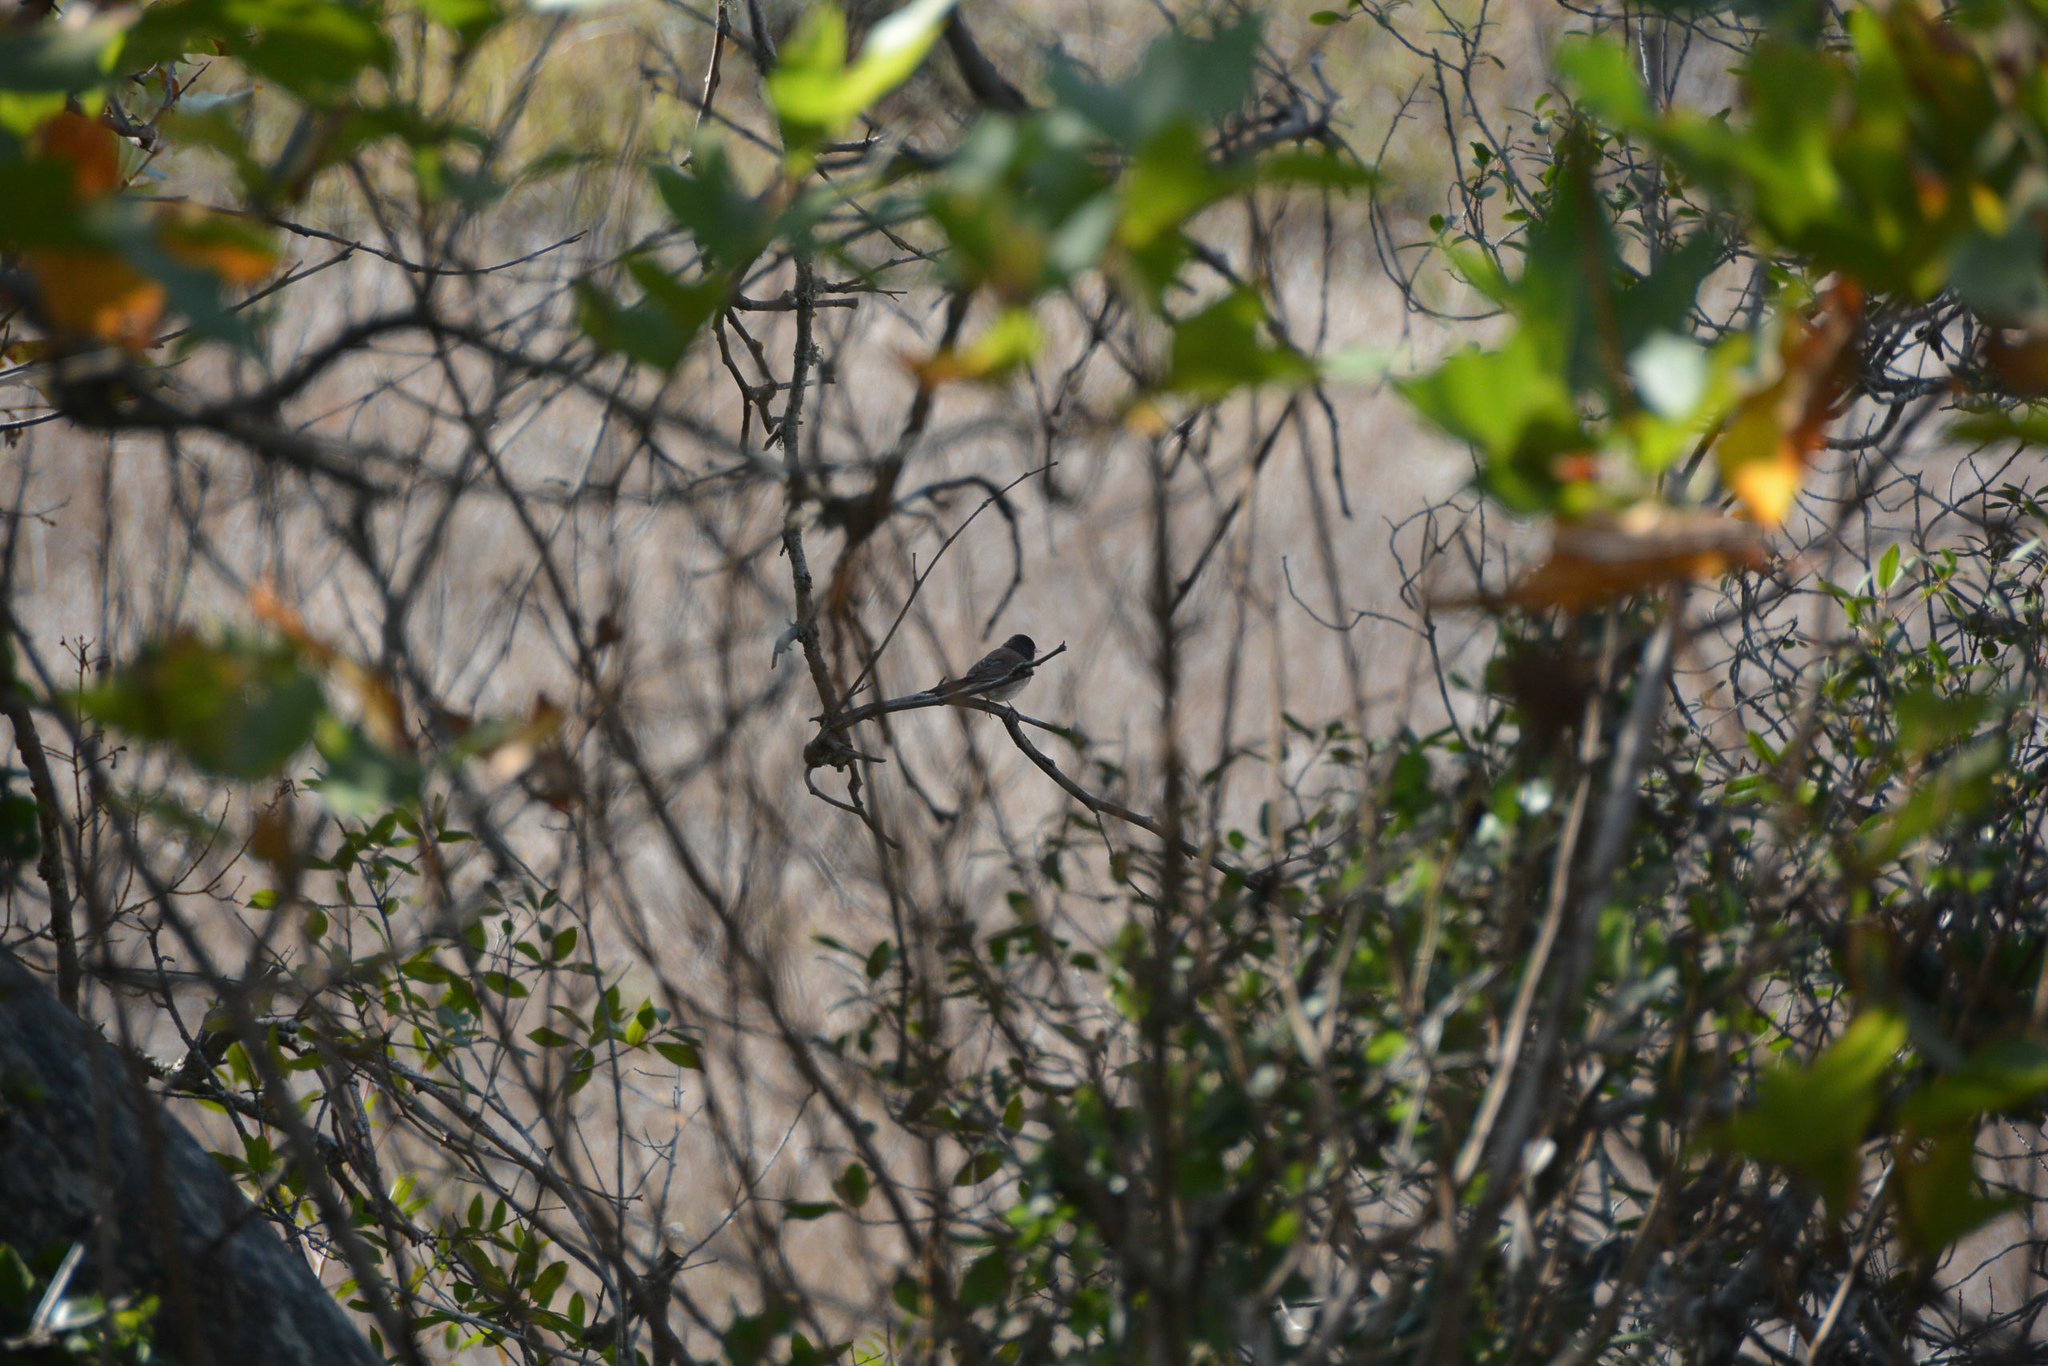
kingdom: Animalia
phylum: Chordata
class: Aves
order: Passeriformes
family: Passerellidae
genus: Junco
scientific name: Junco hyemalis
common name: Dark-eyed junco
